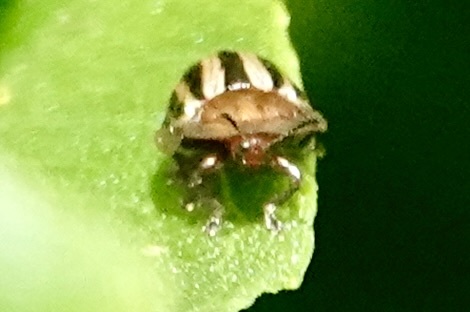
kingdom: Animalia
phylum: Arthropoda
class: Insecta
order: Coleoptera
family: Chrysomelidae
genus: Agroiconota
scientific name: Agroiconota bivittata
